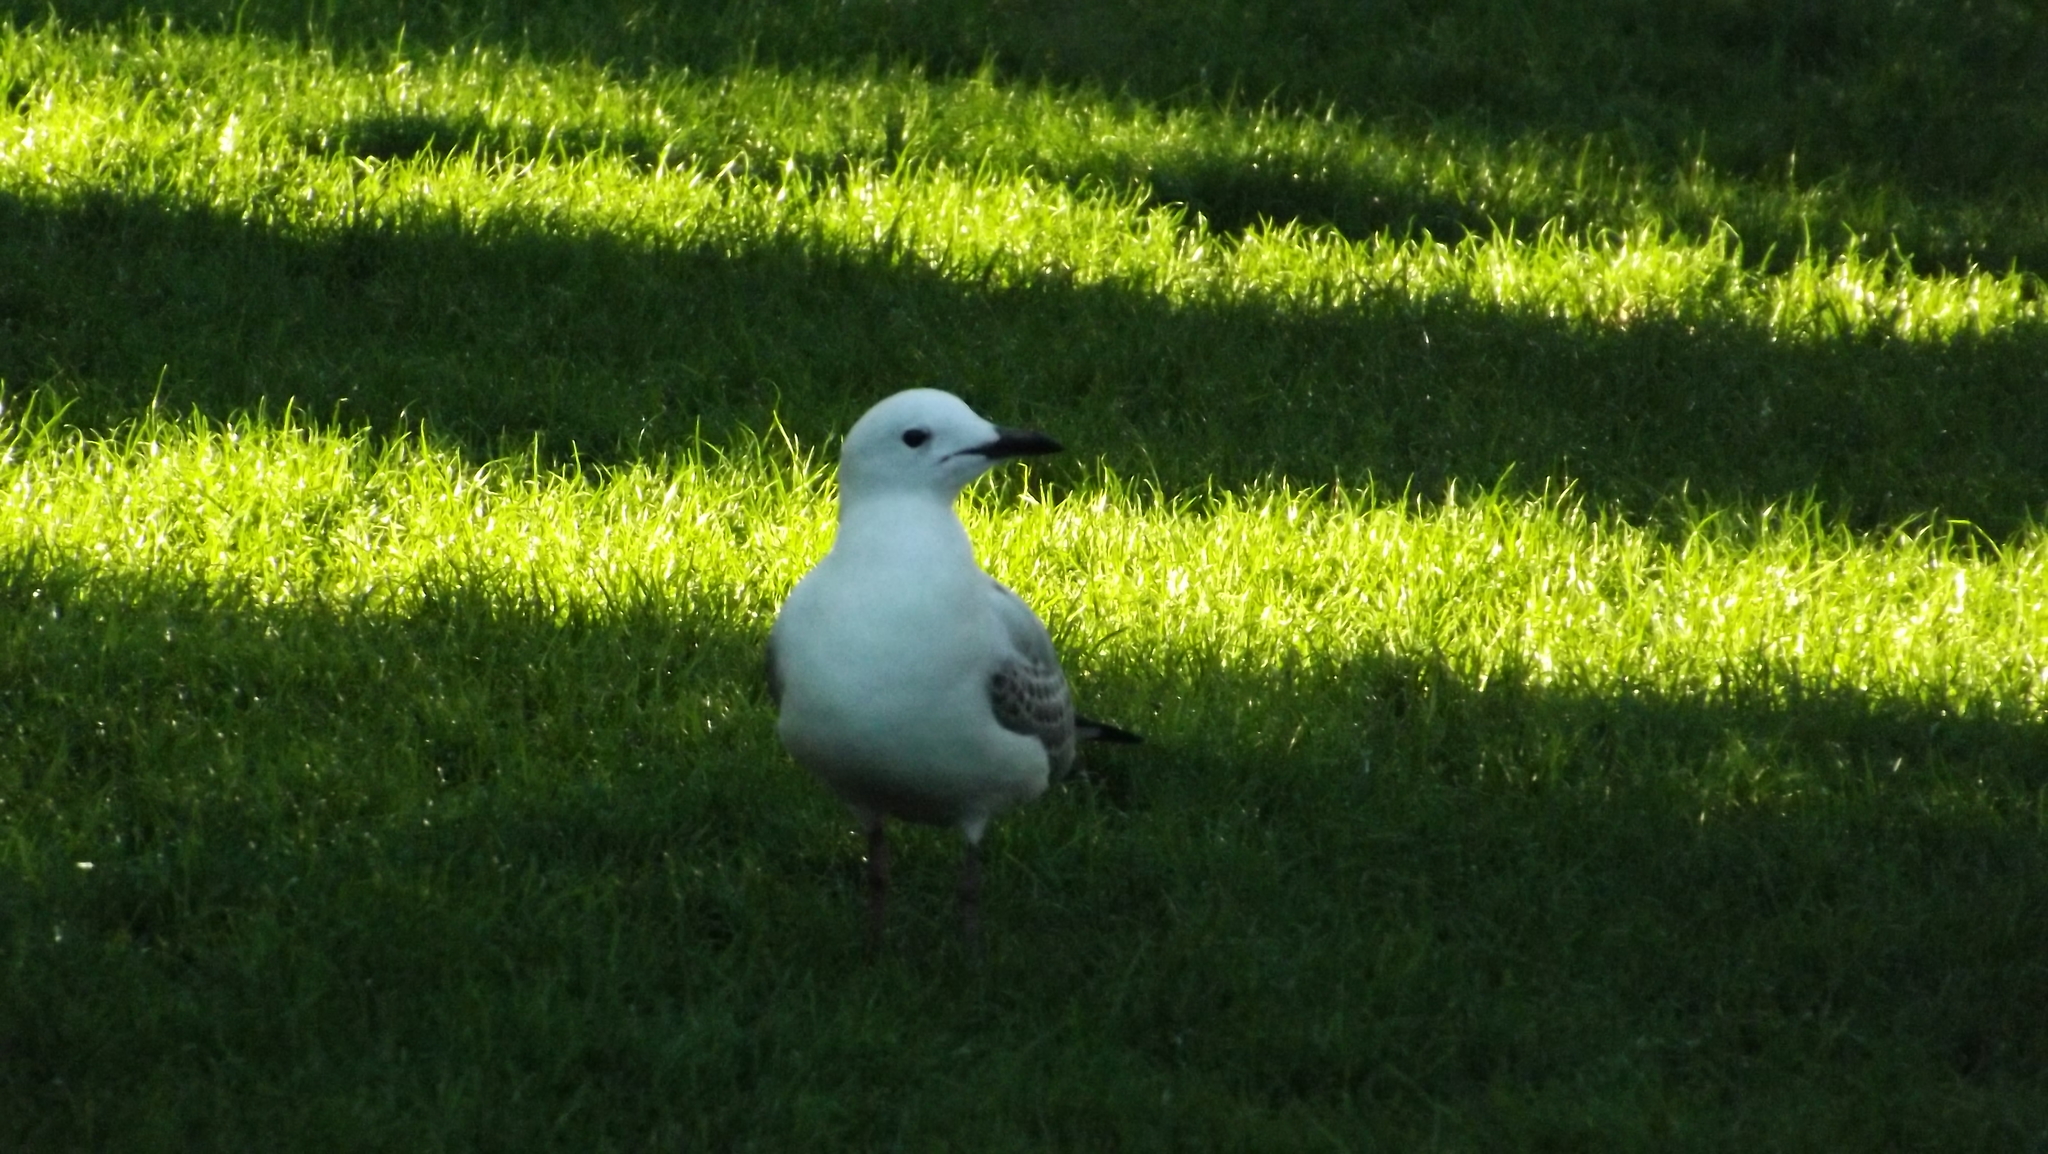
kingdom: Animalia
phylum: Chordata
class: Aves
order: Charadriiformes
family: Laridae
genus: Chroicocephalus
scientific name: Chroicocephalus novaehollandiae
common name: Silver gull
